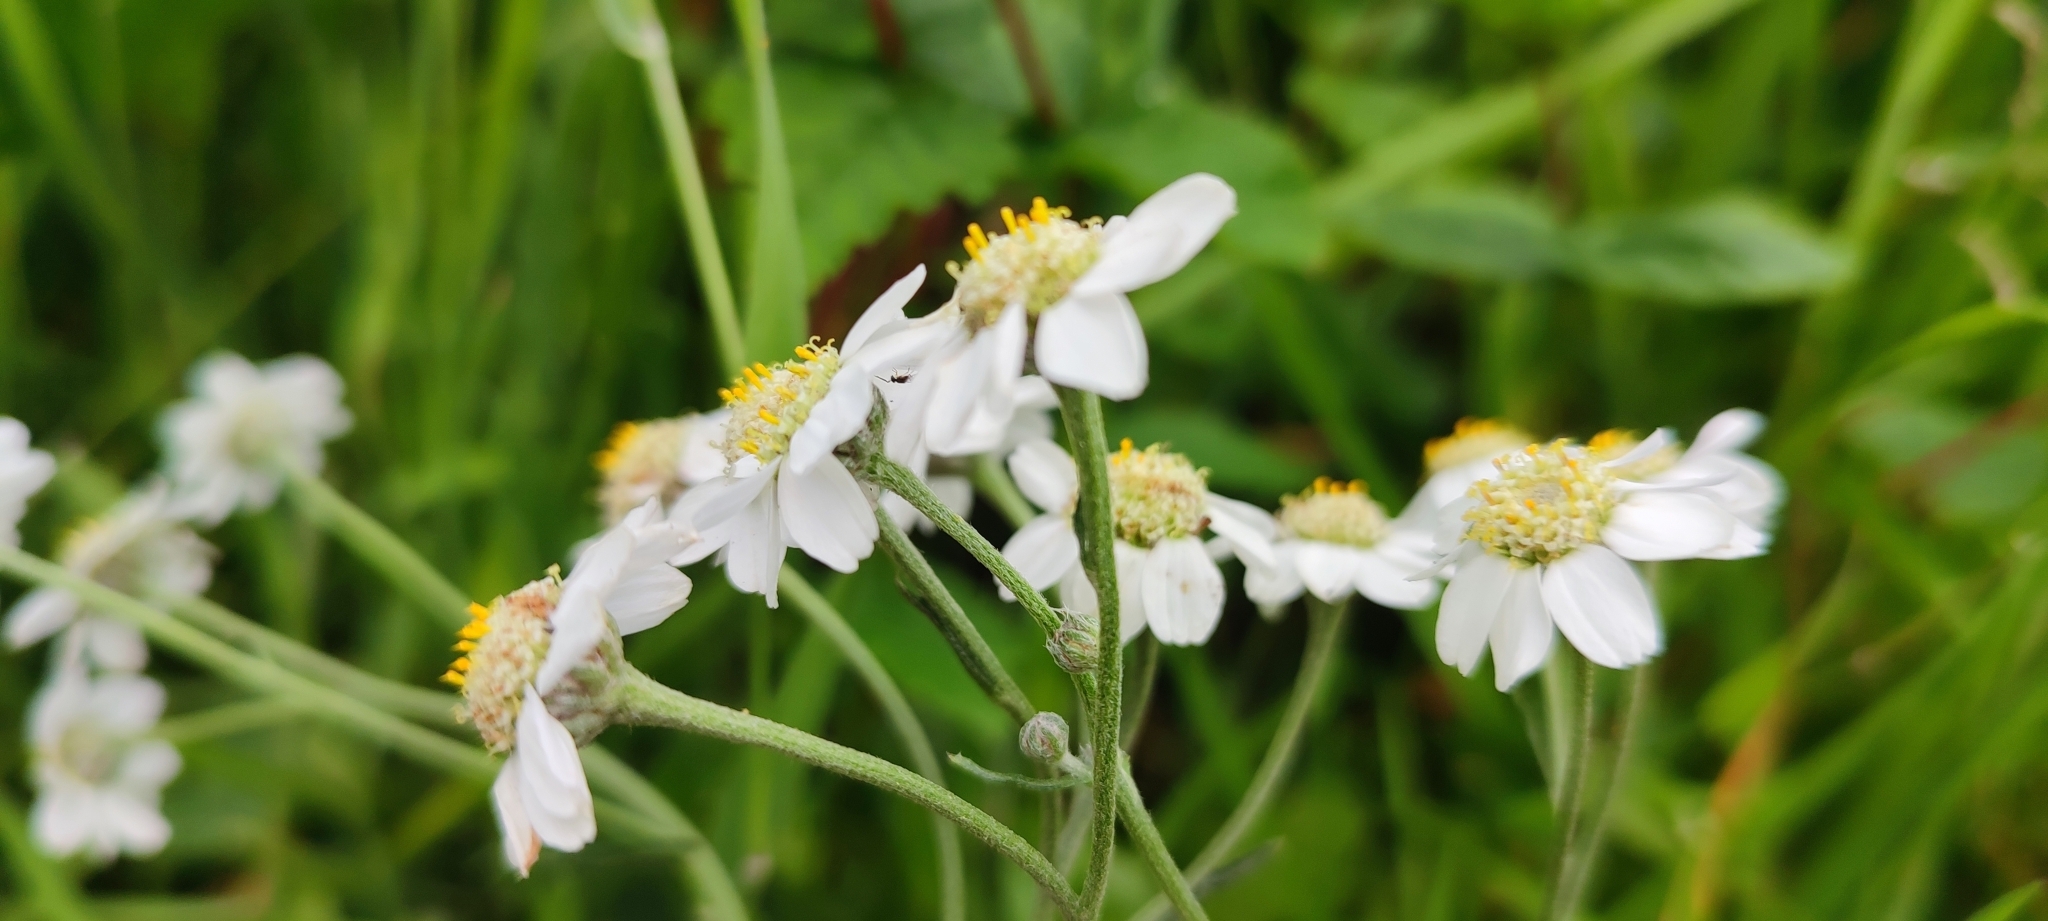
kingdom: Plantae
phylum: Tracheophyta
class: Magnoliopsida
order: Asterales
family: Asteraceae
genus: Achillea
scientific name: Achillea ptarmica
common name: Sneezeweed
